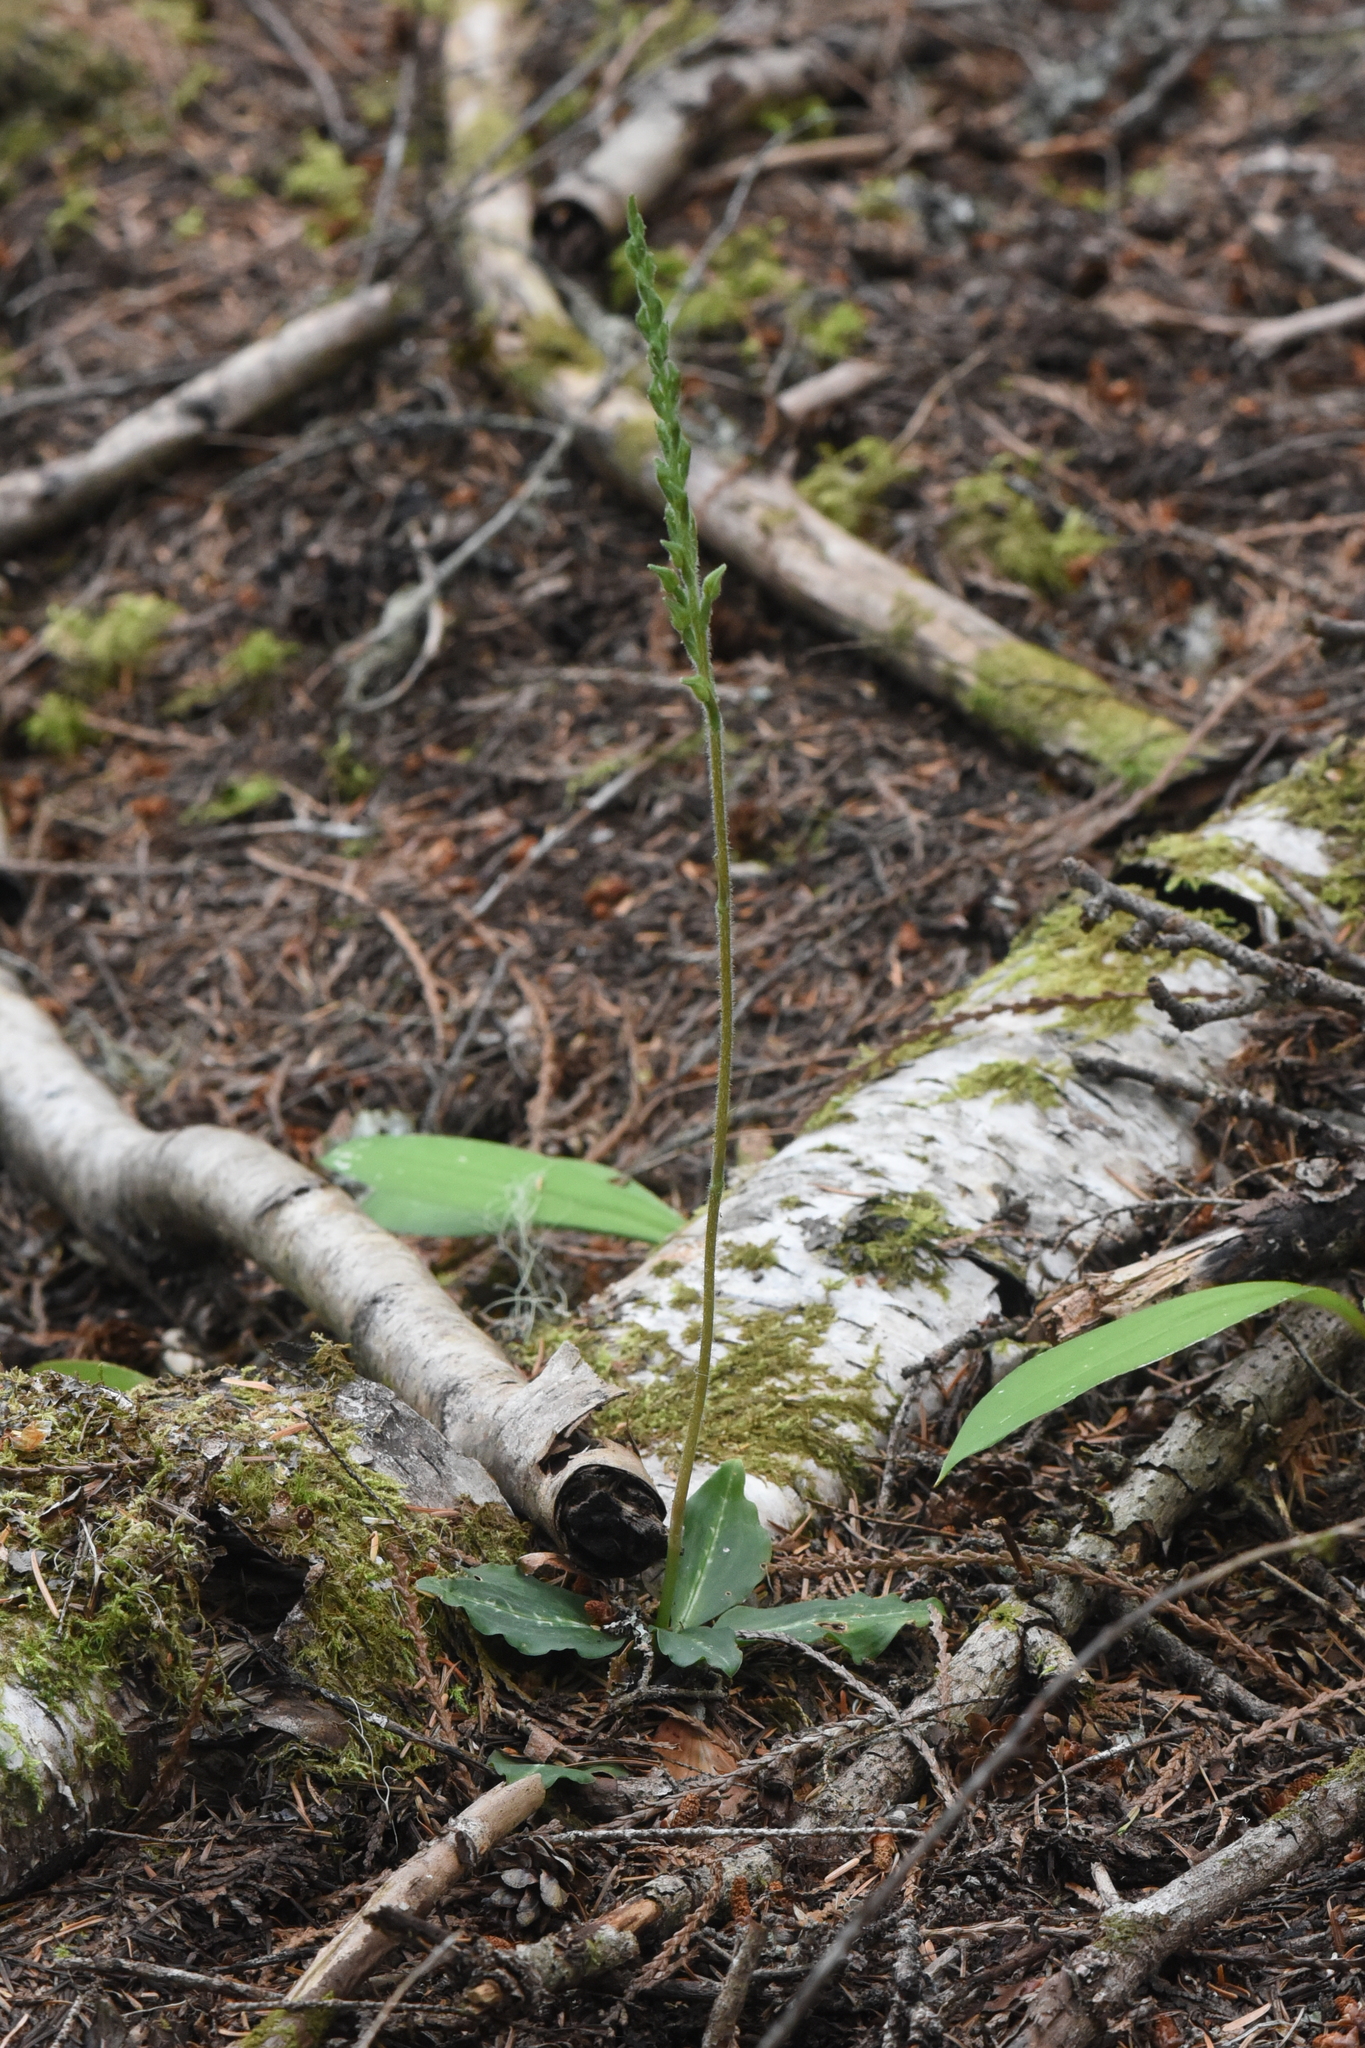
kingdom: Plantae
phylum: Tracheophyta
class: Liliopsida
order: Asparagales
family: Orchidaceae
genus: Goodyera
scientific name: Goodyera oblongifolia
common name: Giant rattlesnake-plantain
